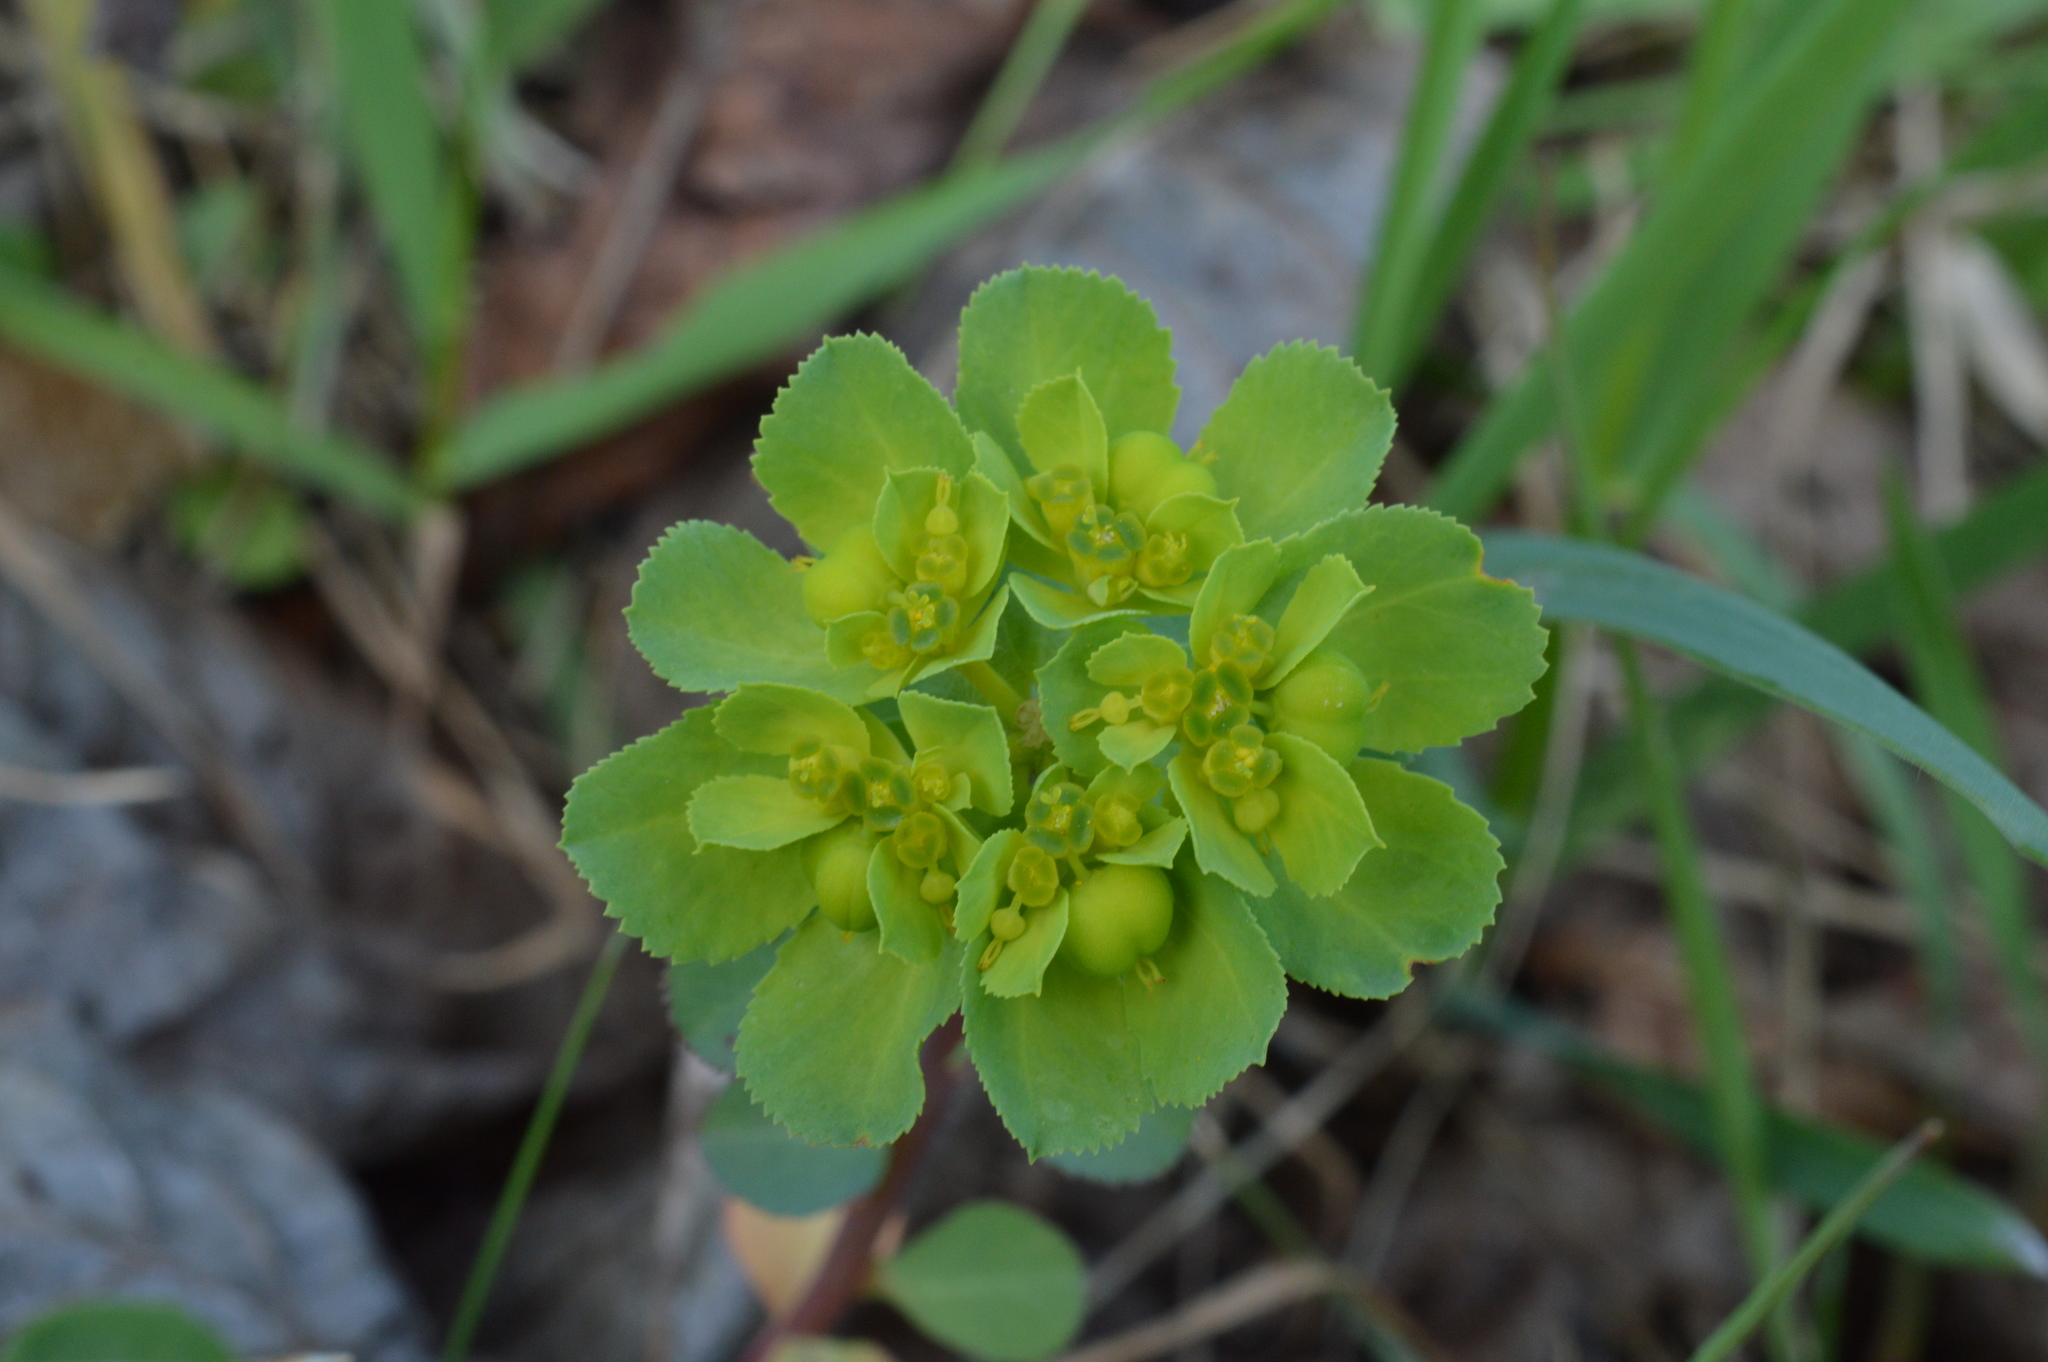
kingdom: Plantae
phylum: Tracheophyta
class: Magnoliopsida
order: Malpighiales
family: Euphorbiaceae
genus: Euphorbia
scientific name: Euphorbia helioscopia
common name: Sun spurge
